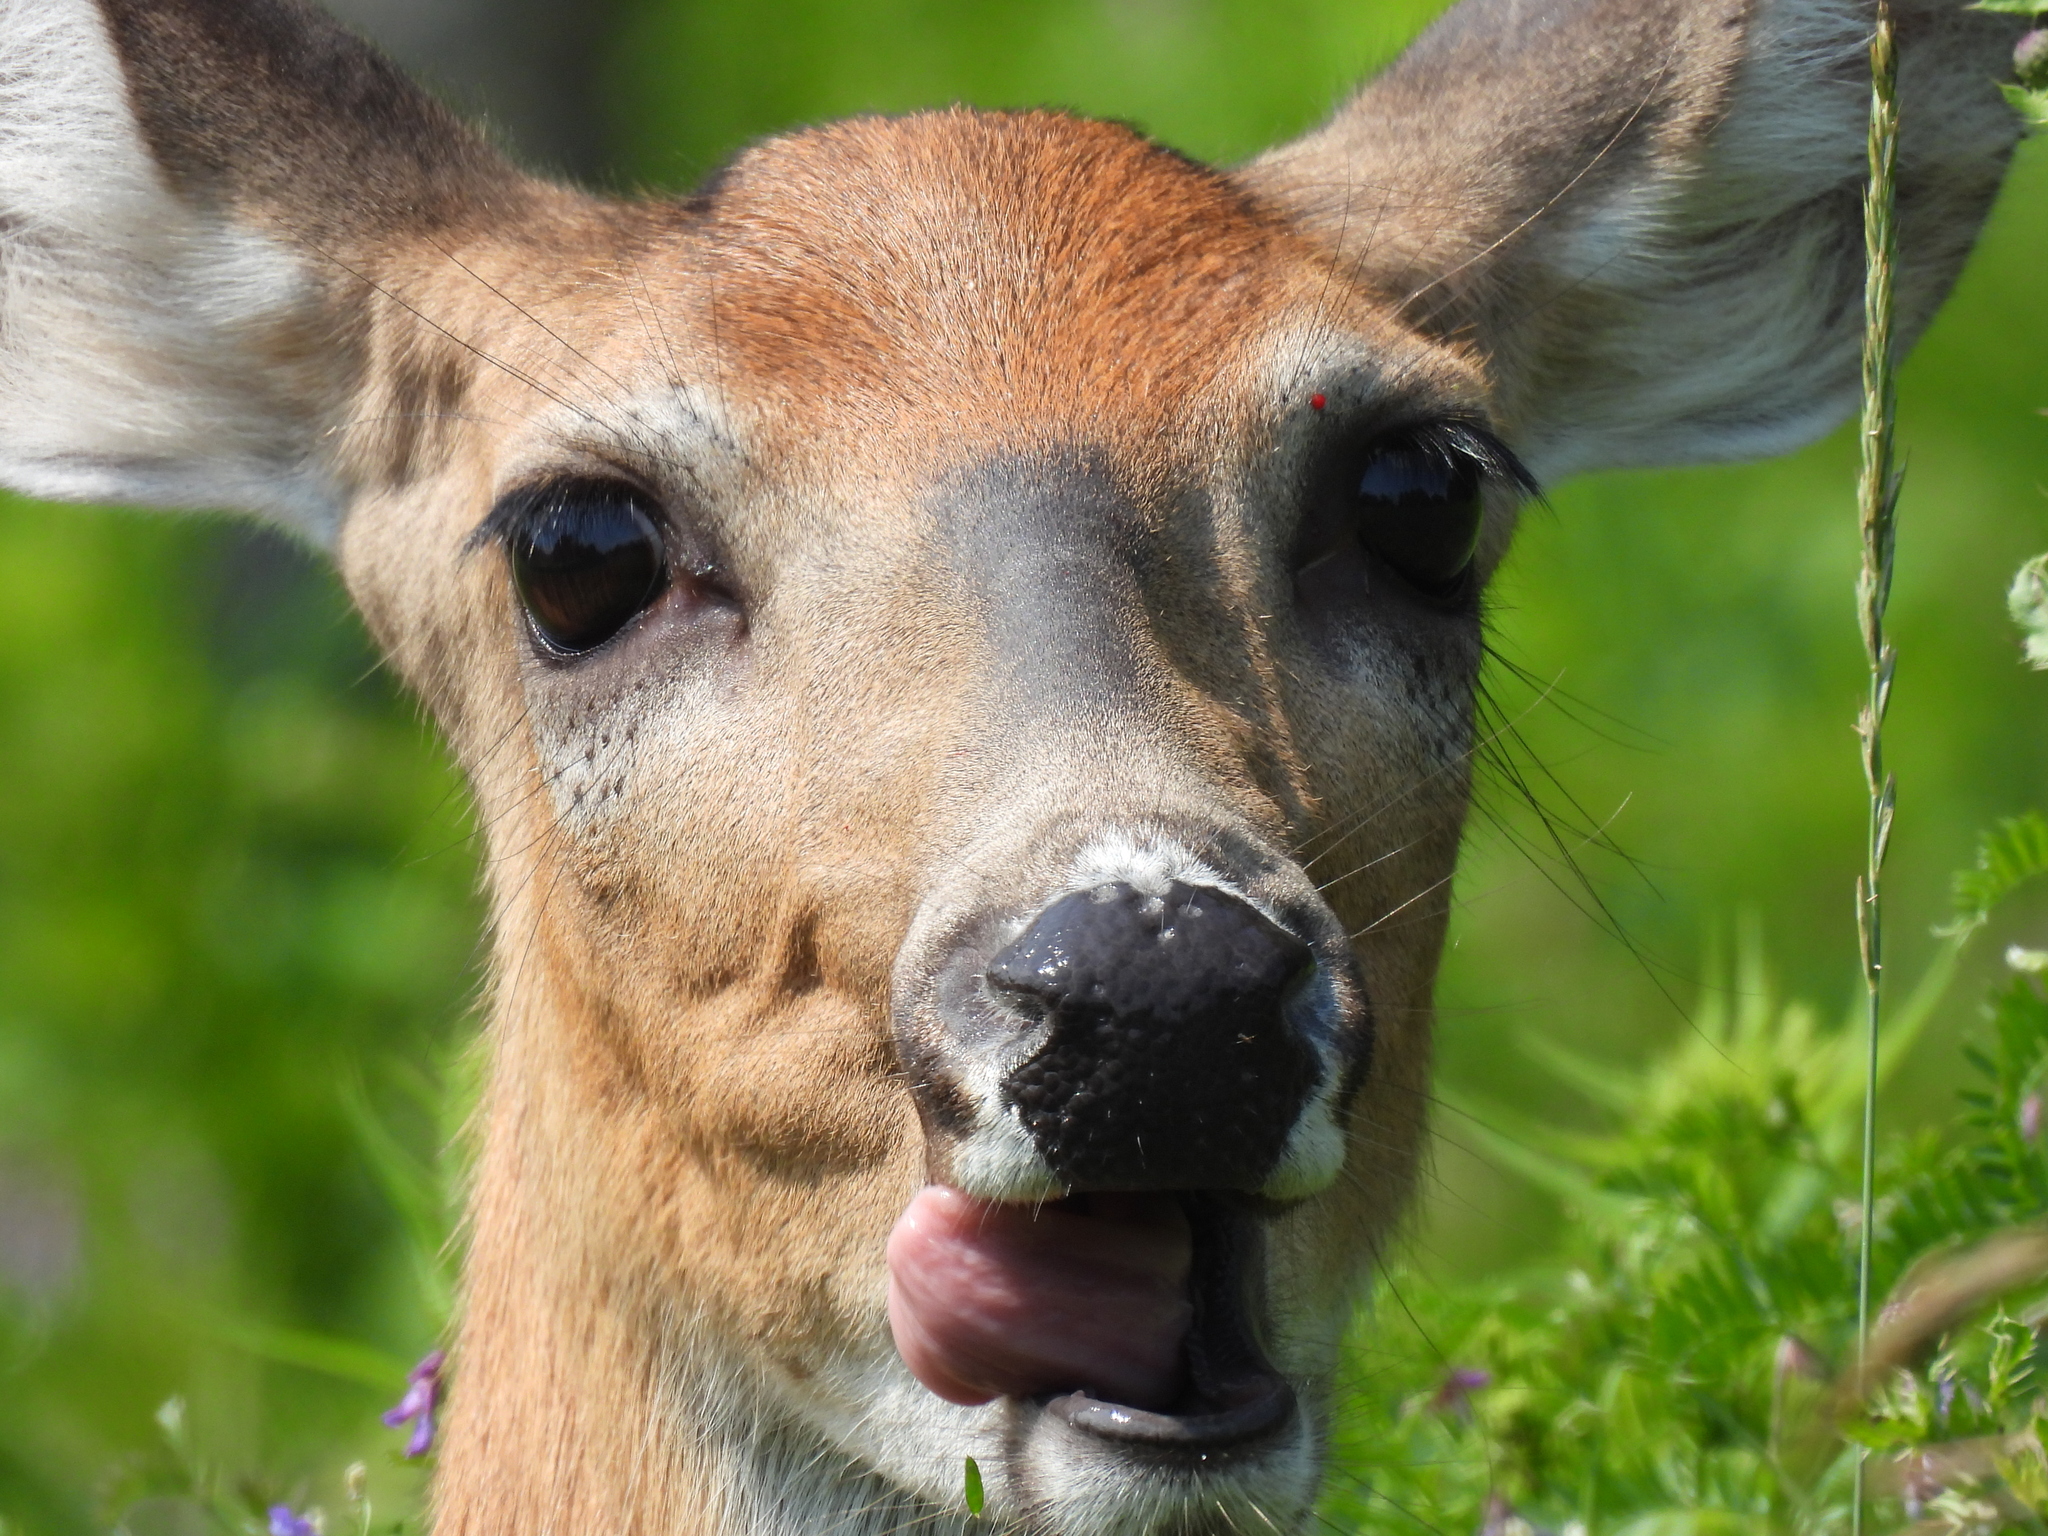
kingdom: Animalia
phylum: Chordata
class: Mammalia
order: Artiodactyla
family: Cervidae
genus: Odocoileus
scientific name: Odocoileus virginianus
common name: White-tailed deer
